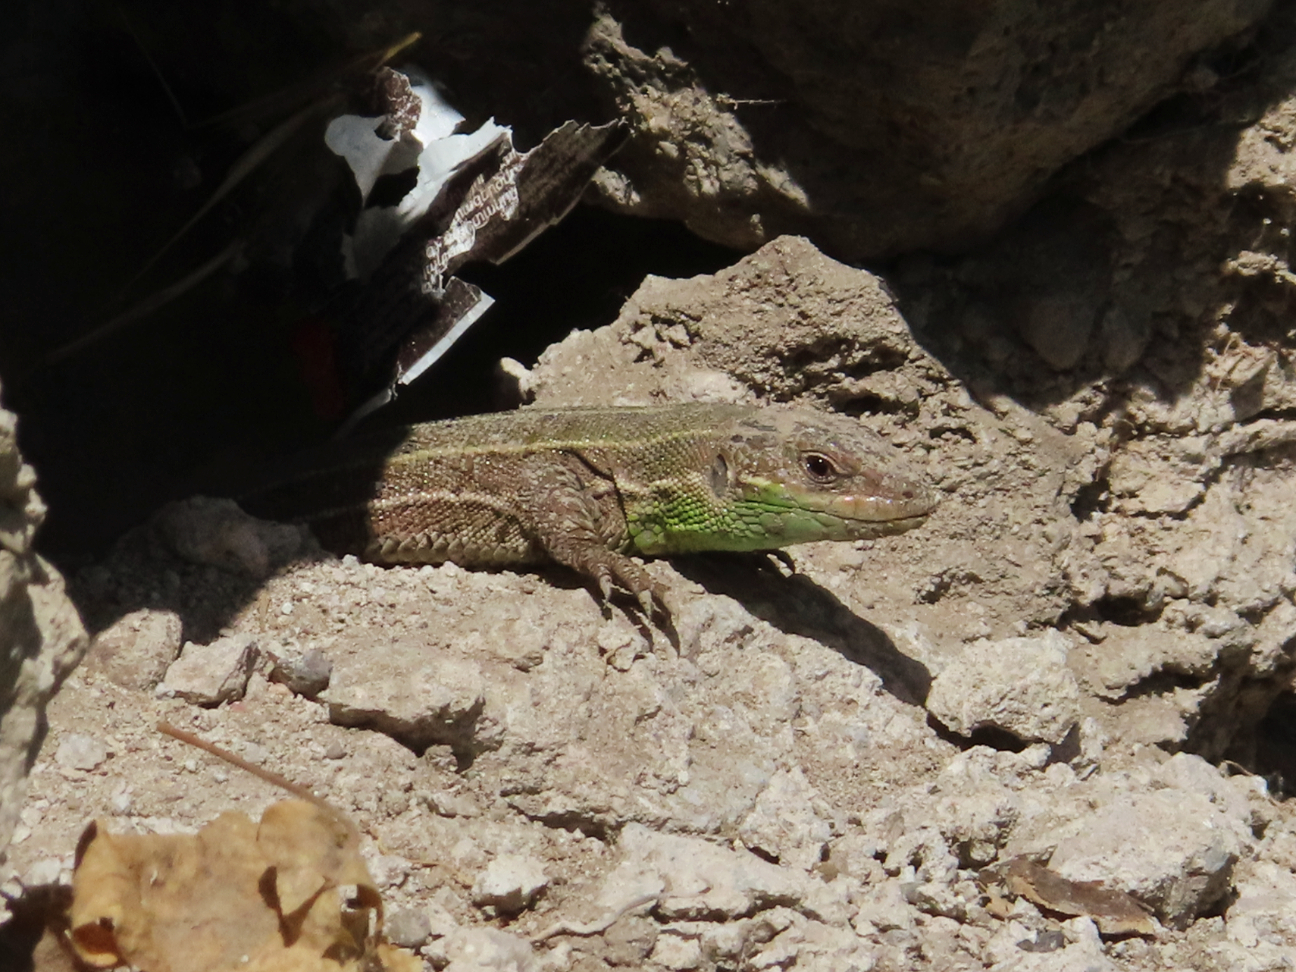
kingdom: Animalia
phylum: Chordata
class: Squamata
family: Lacertidae
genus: Lacerta
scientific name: Lacerta strigata
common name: Caspian green lizard
